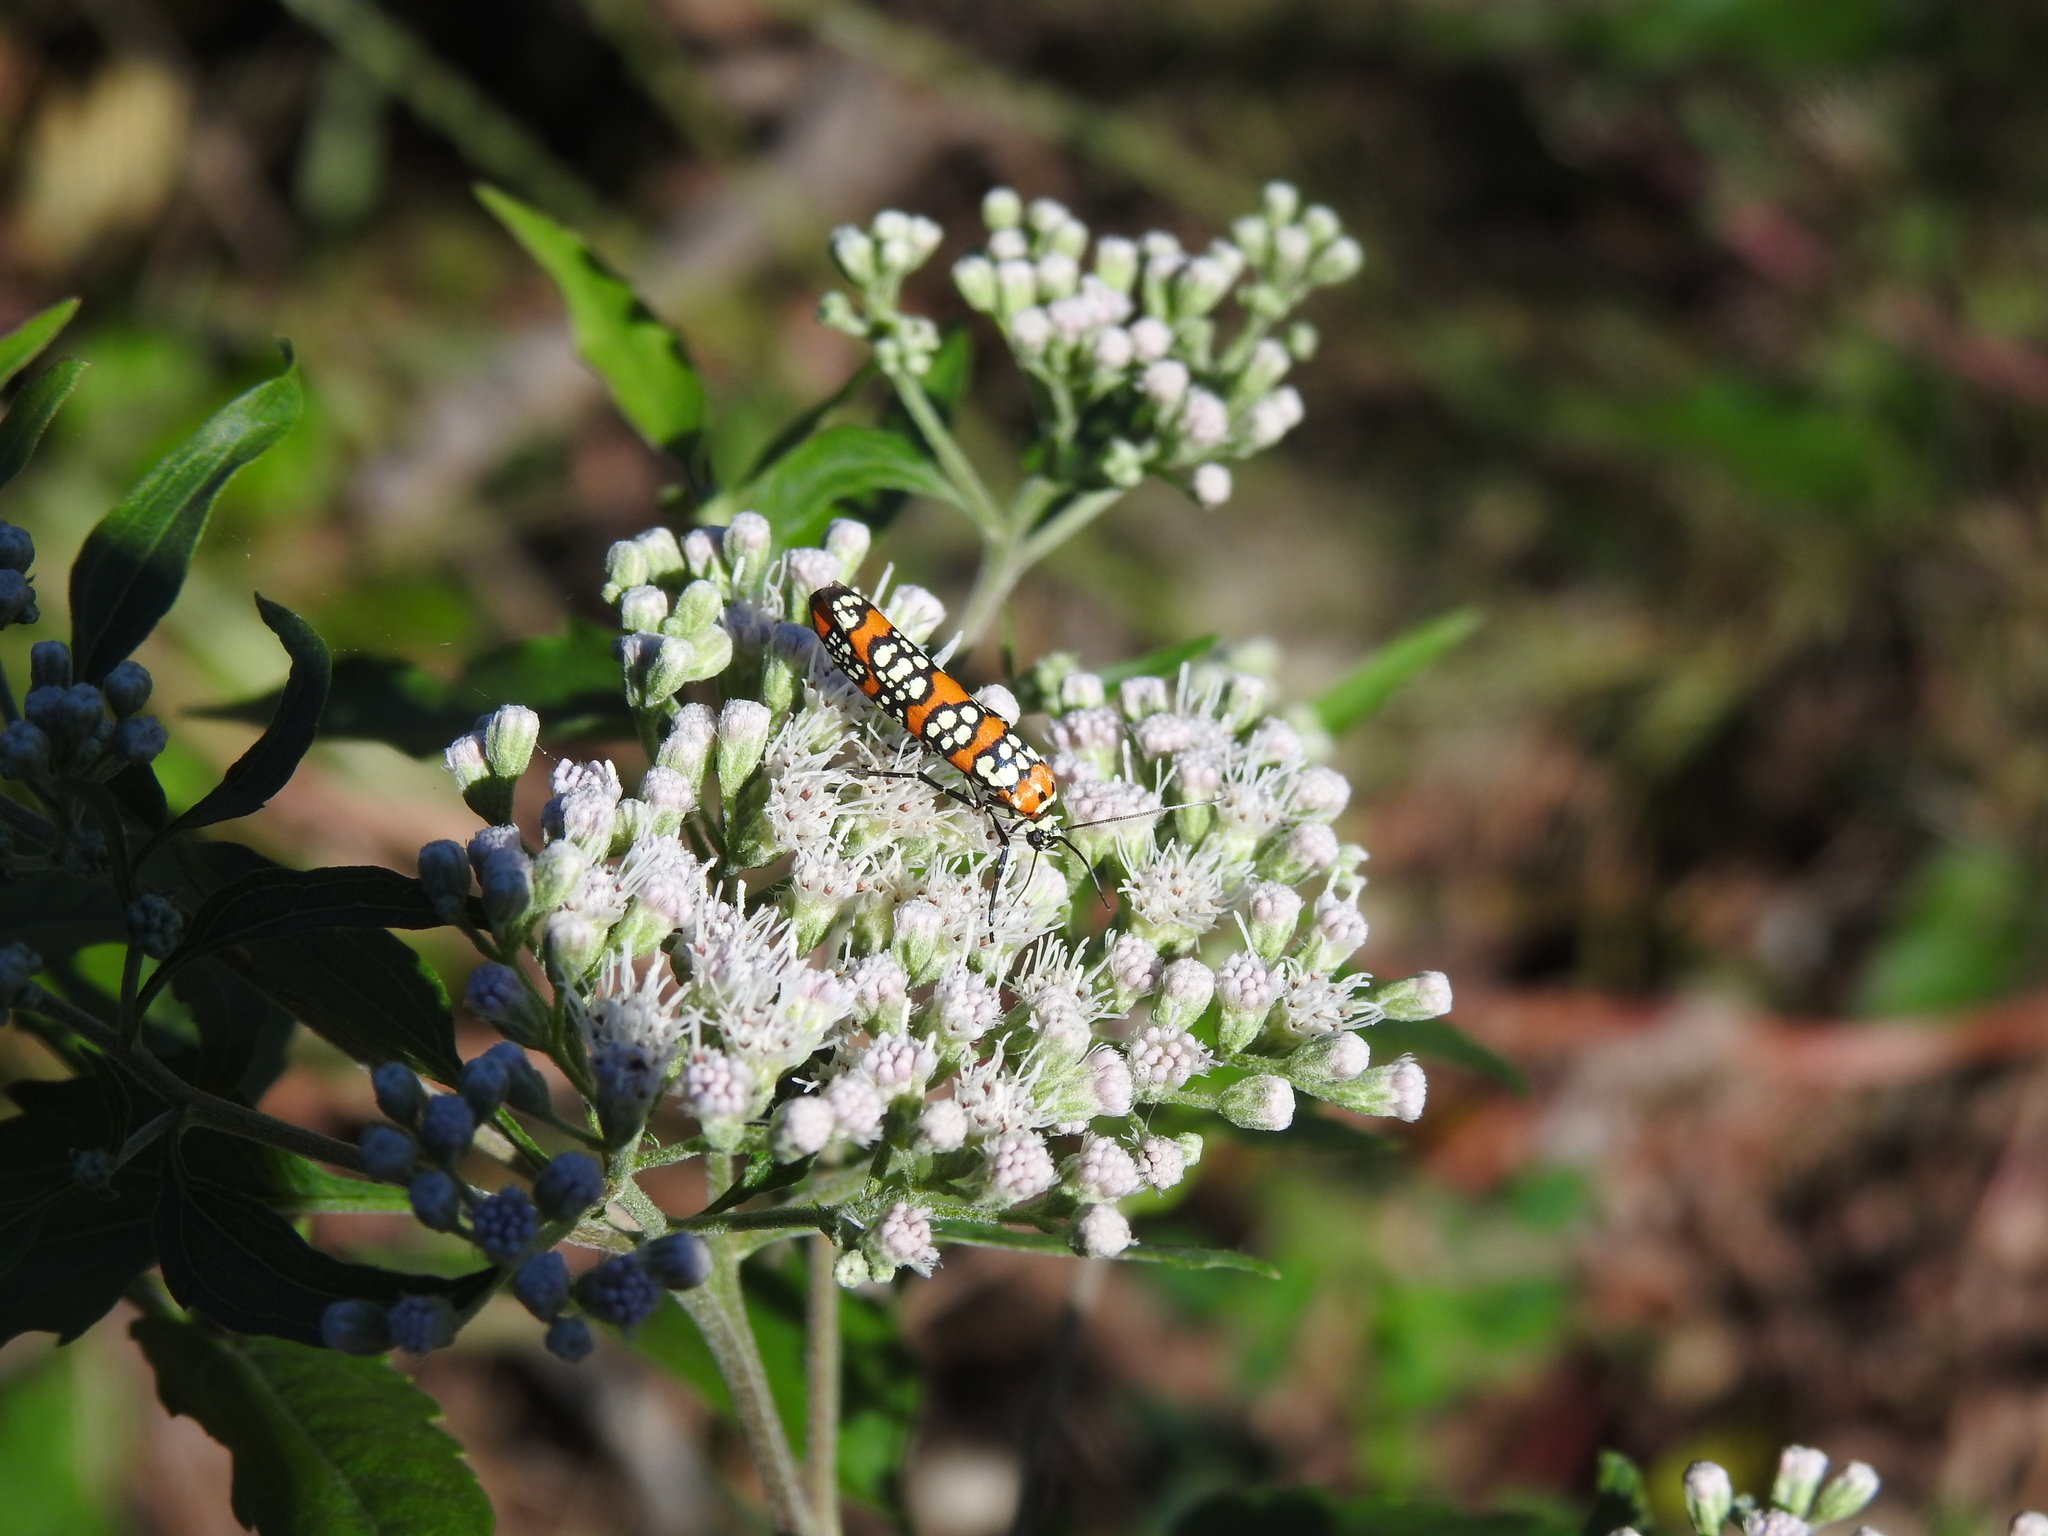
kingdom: Animalia
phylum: Arthropoda
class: Insecta
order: Lepidoptera
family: Attevidae
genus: Atteva
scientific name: Atteva punctella
